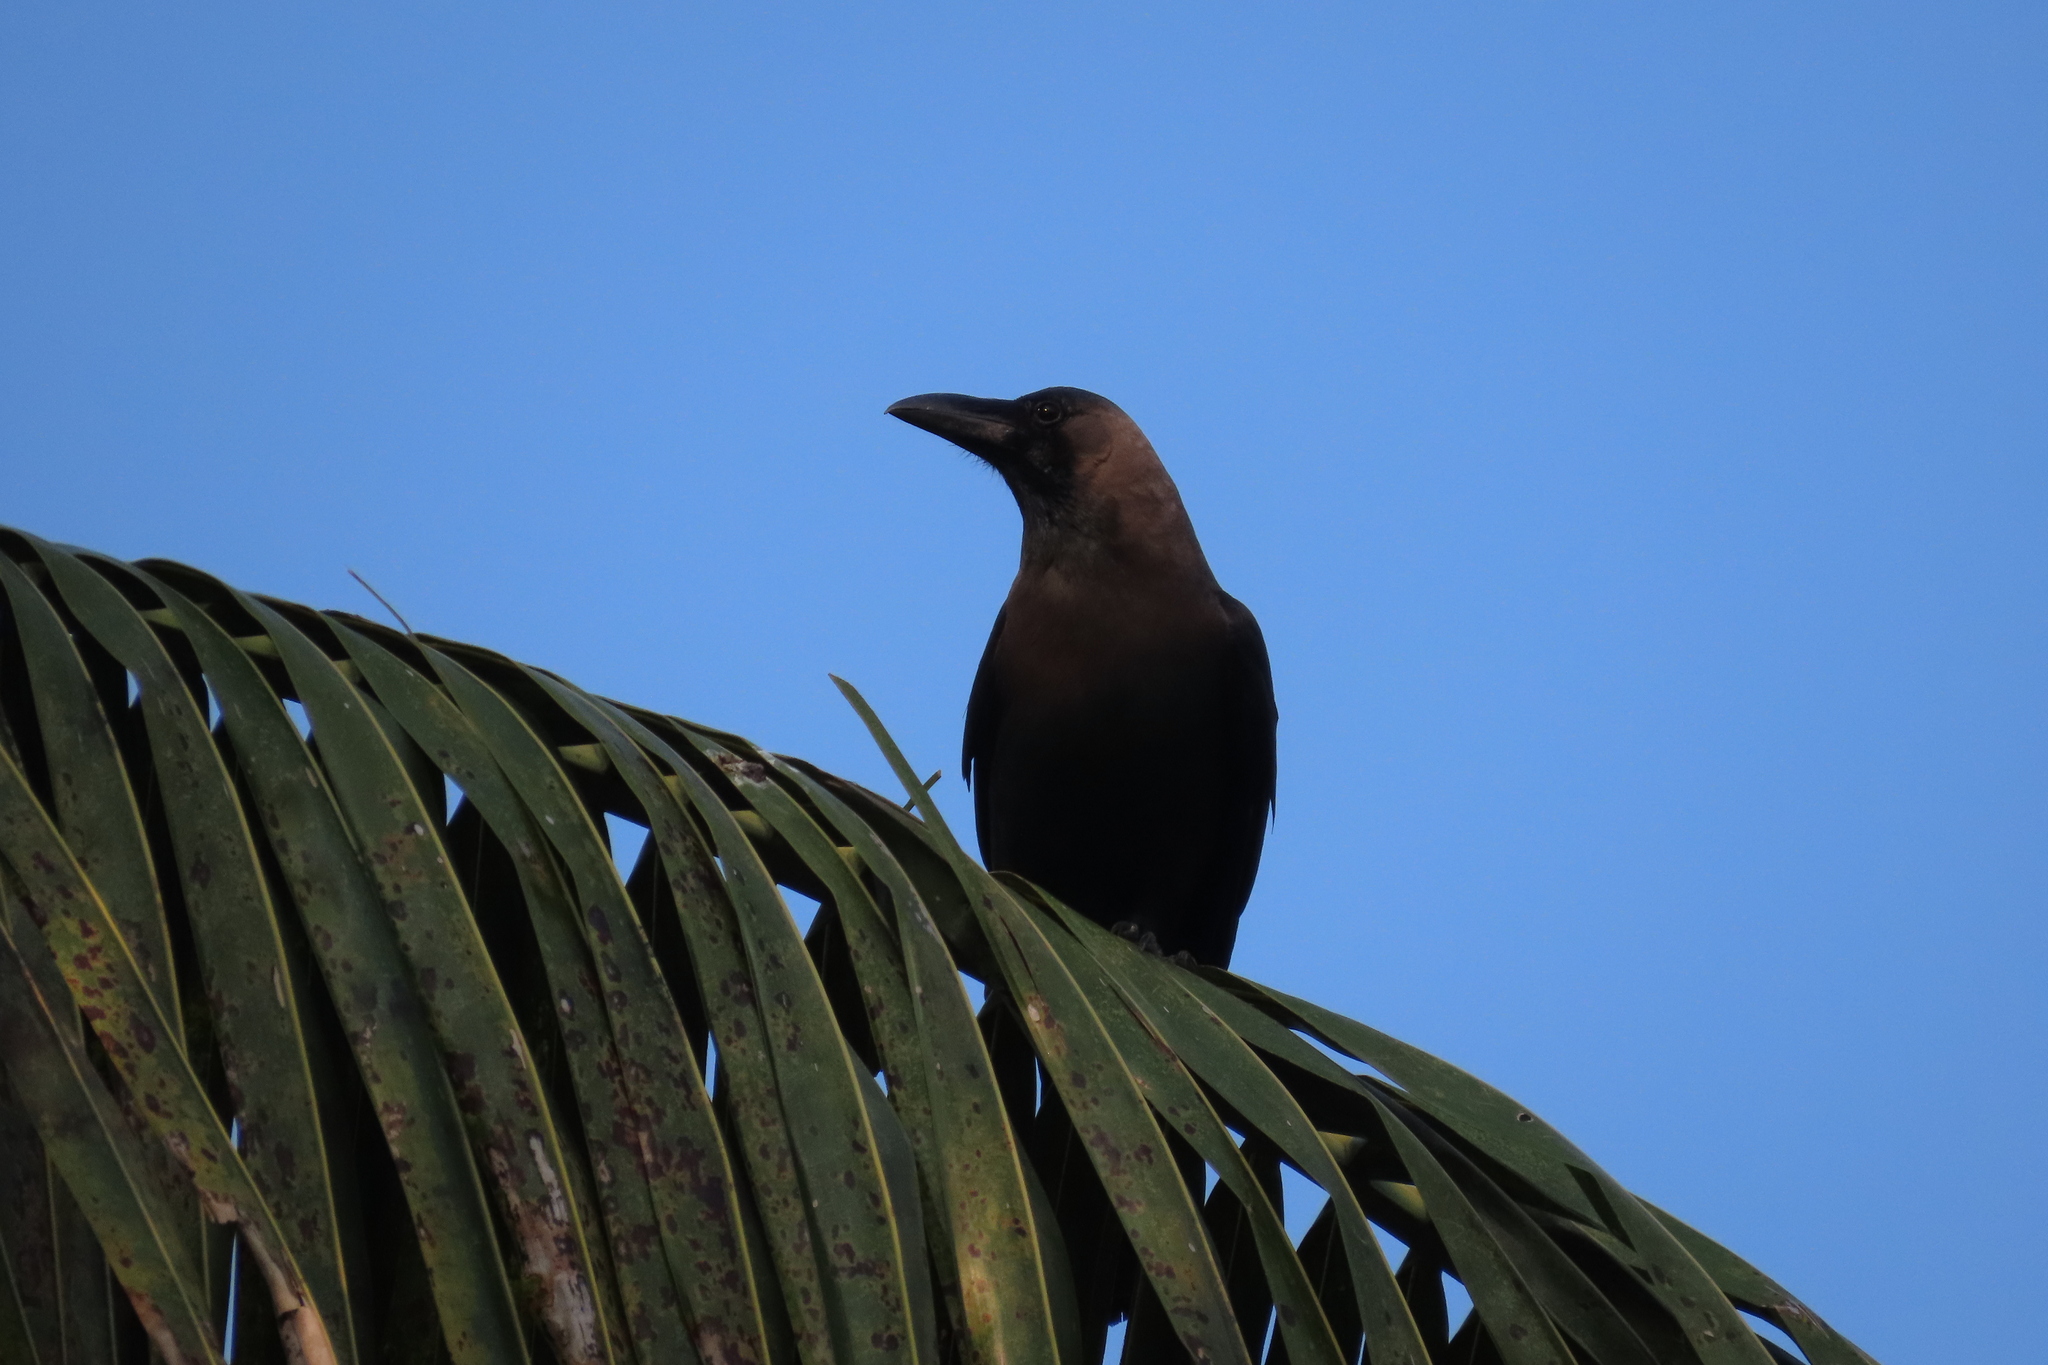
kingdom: Animalia
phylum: Chordata
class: Aves
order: Passeriformes
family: Corvidae
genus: Corvus
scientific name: Corvus splendens
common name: House crow
